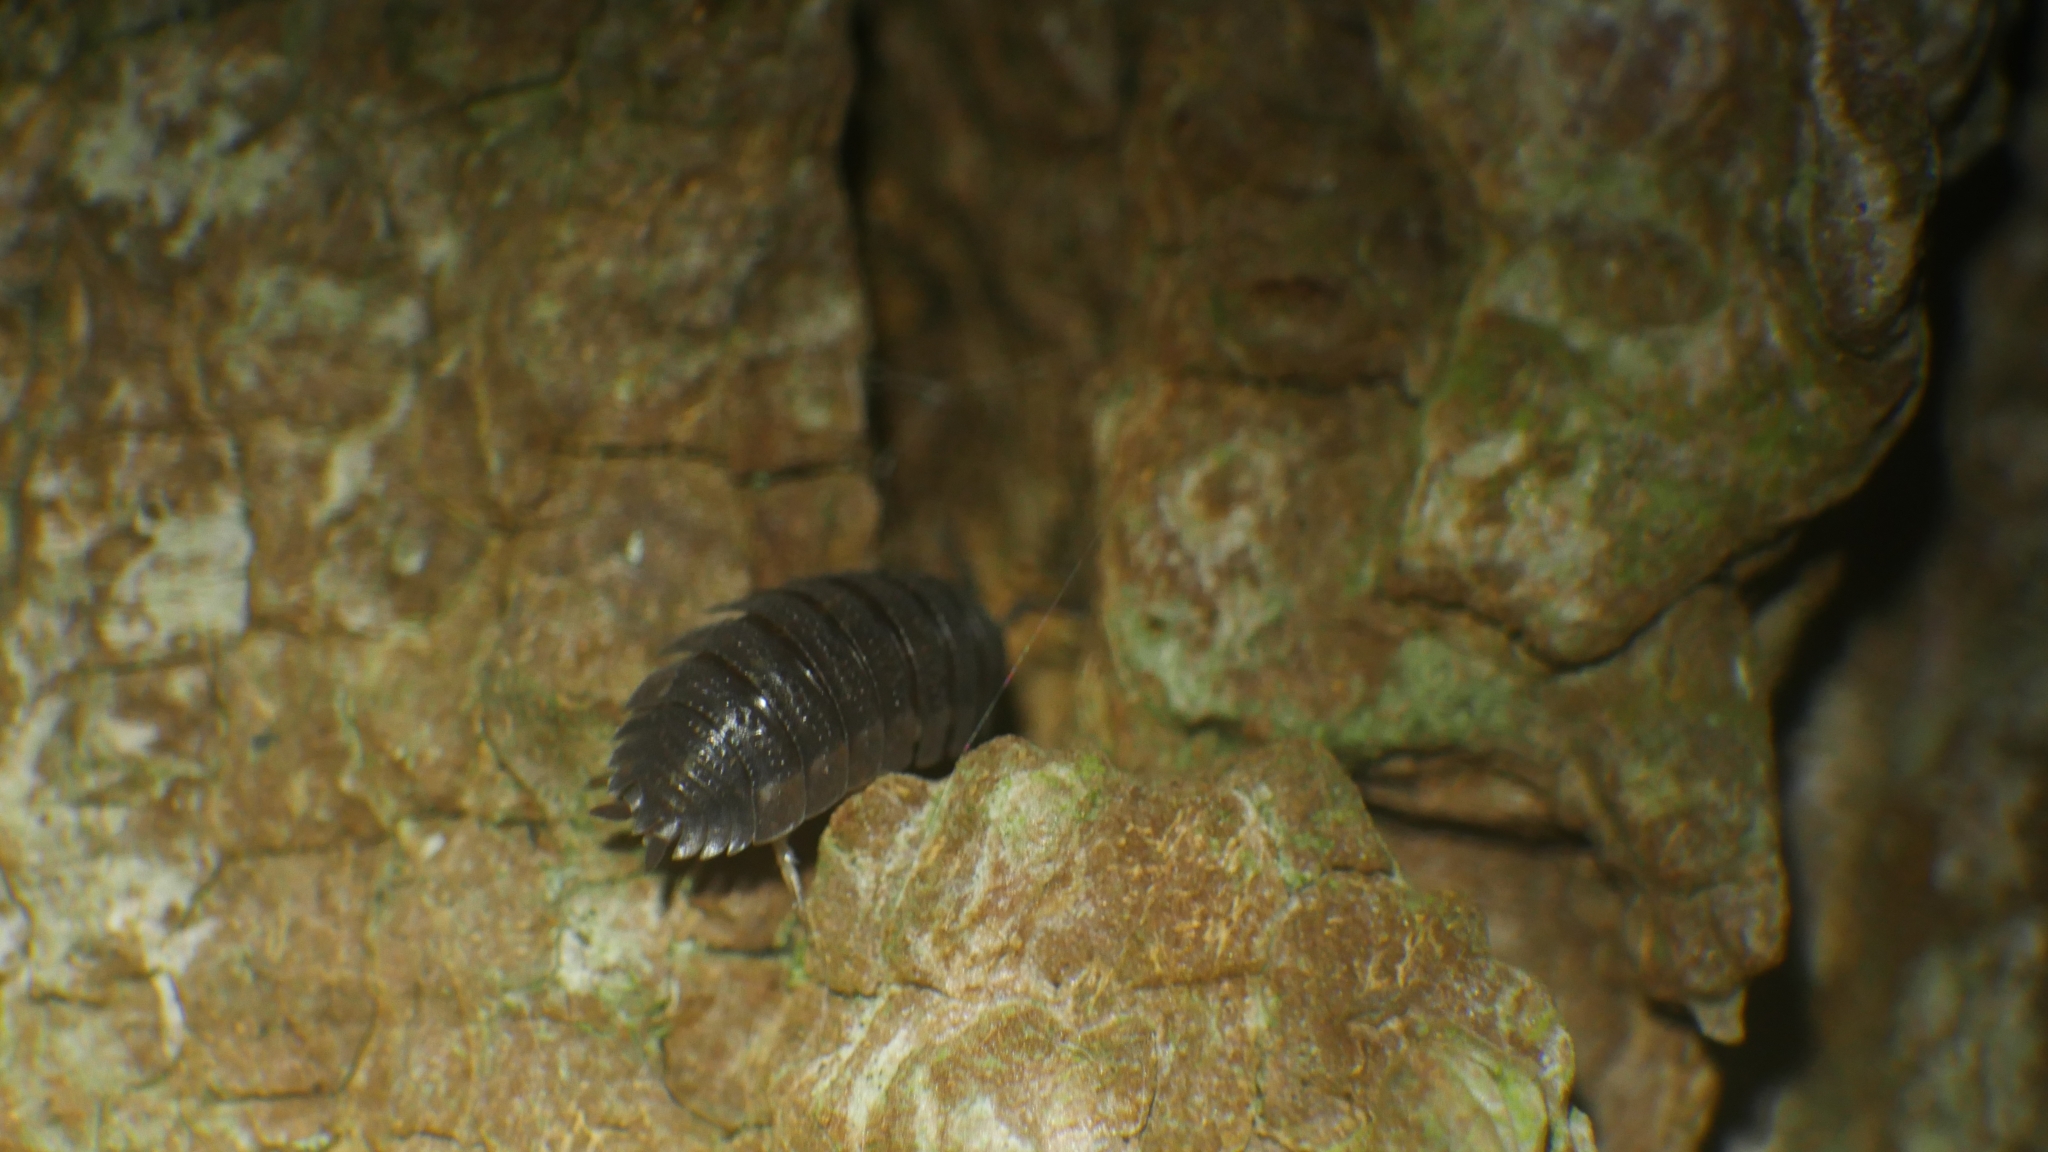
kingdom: Animalia
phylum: Arthropoda
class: Malacostraca
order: Isopoda
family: Porcellionidae
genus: Porcellio
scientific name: Porcellio scaber
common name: Common rough woodlouse
